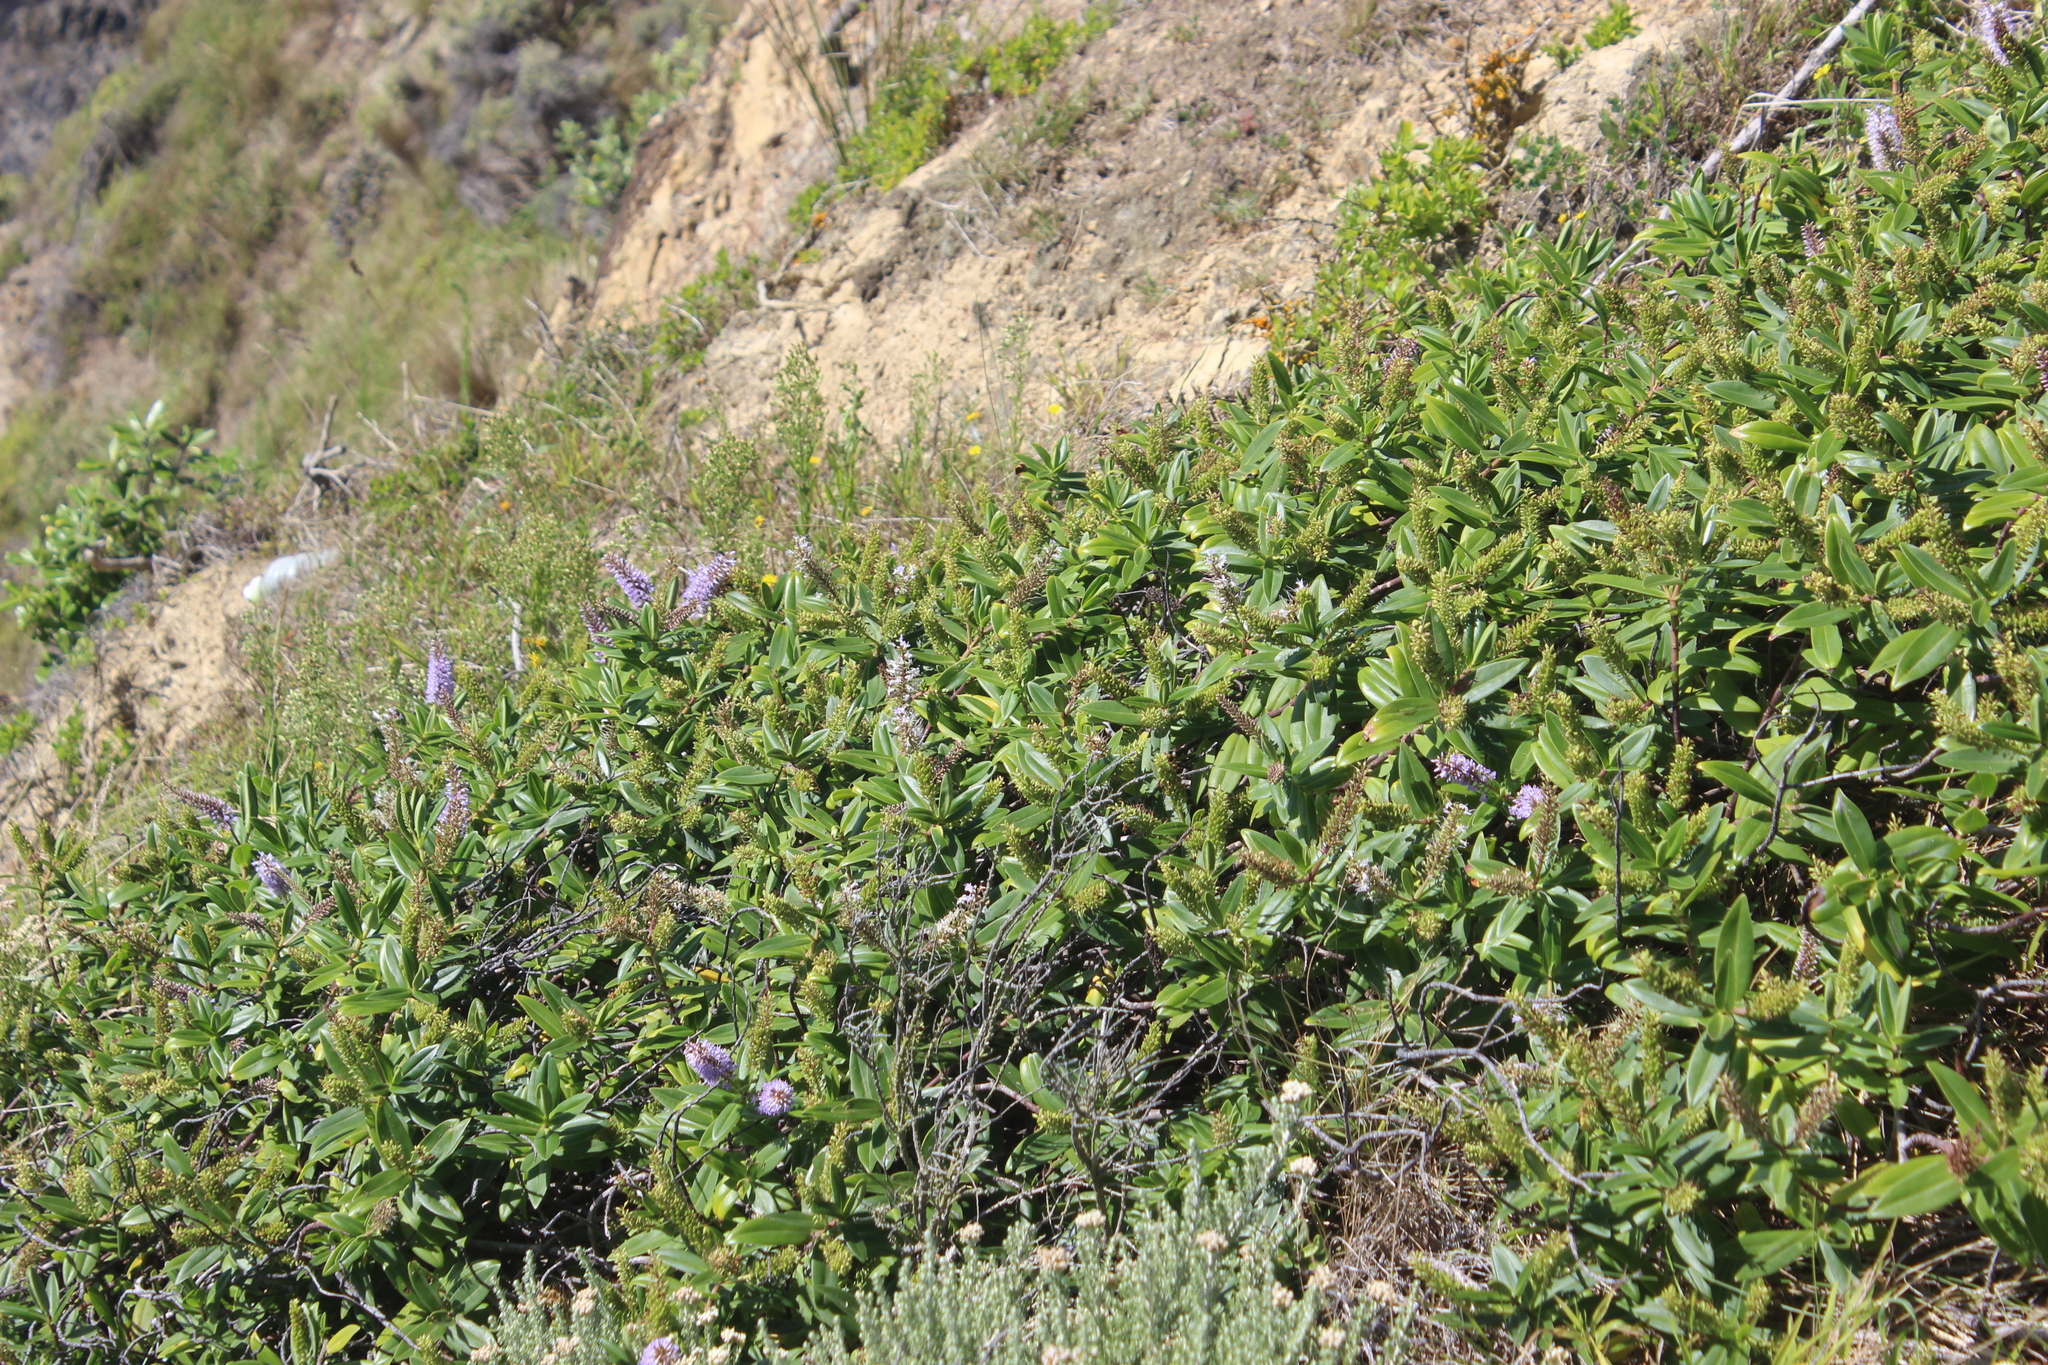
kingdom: Plantae
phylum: Tracheophyta
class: Magnoliopsida
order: Lamiales
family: Plantaginaceae
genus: Veronica
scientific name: Veronica stricta
